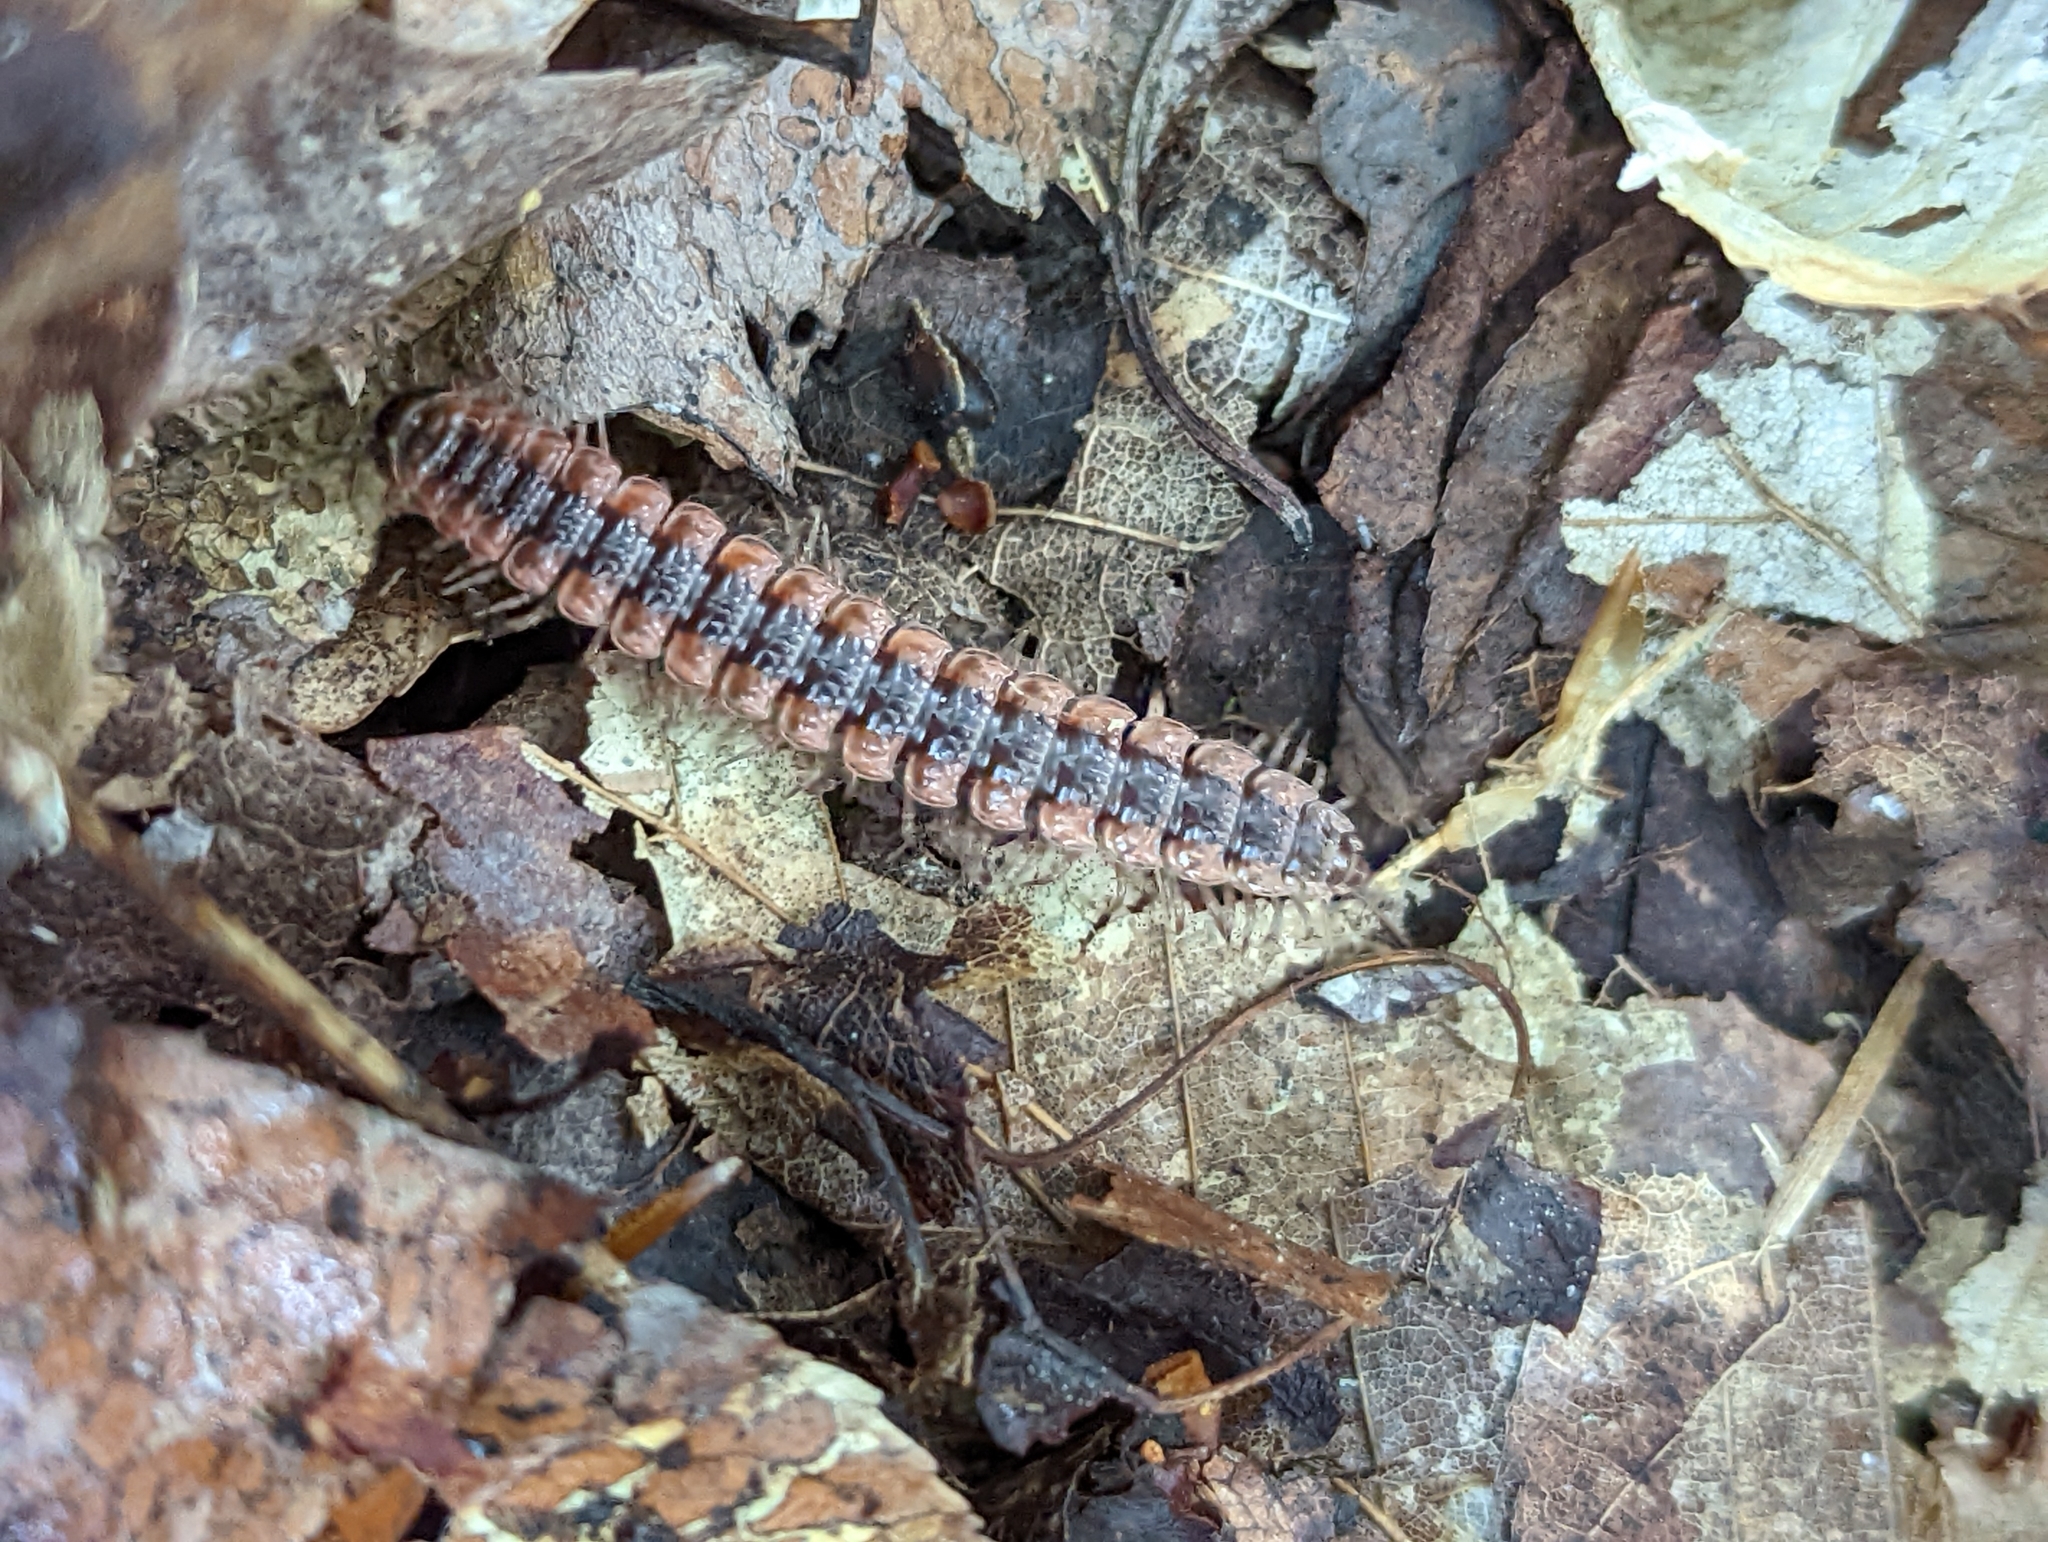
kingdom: Animalia
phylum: Arthropoda
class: Diplopoda
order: Polydesmida
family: Polydesmidae
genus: Pseudopolydesmus
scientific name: Pseudopolydesmus canadensis
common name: Canadian flat-back millipede
